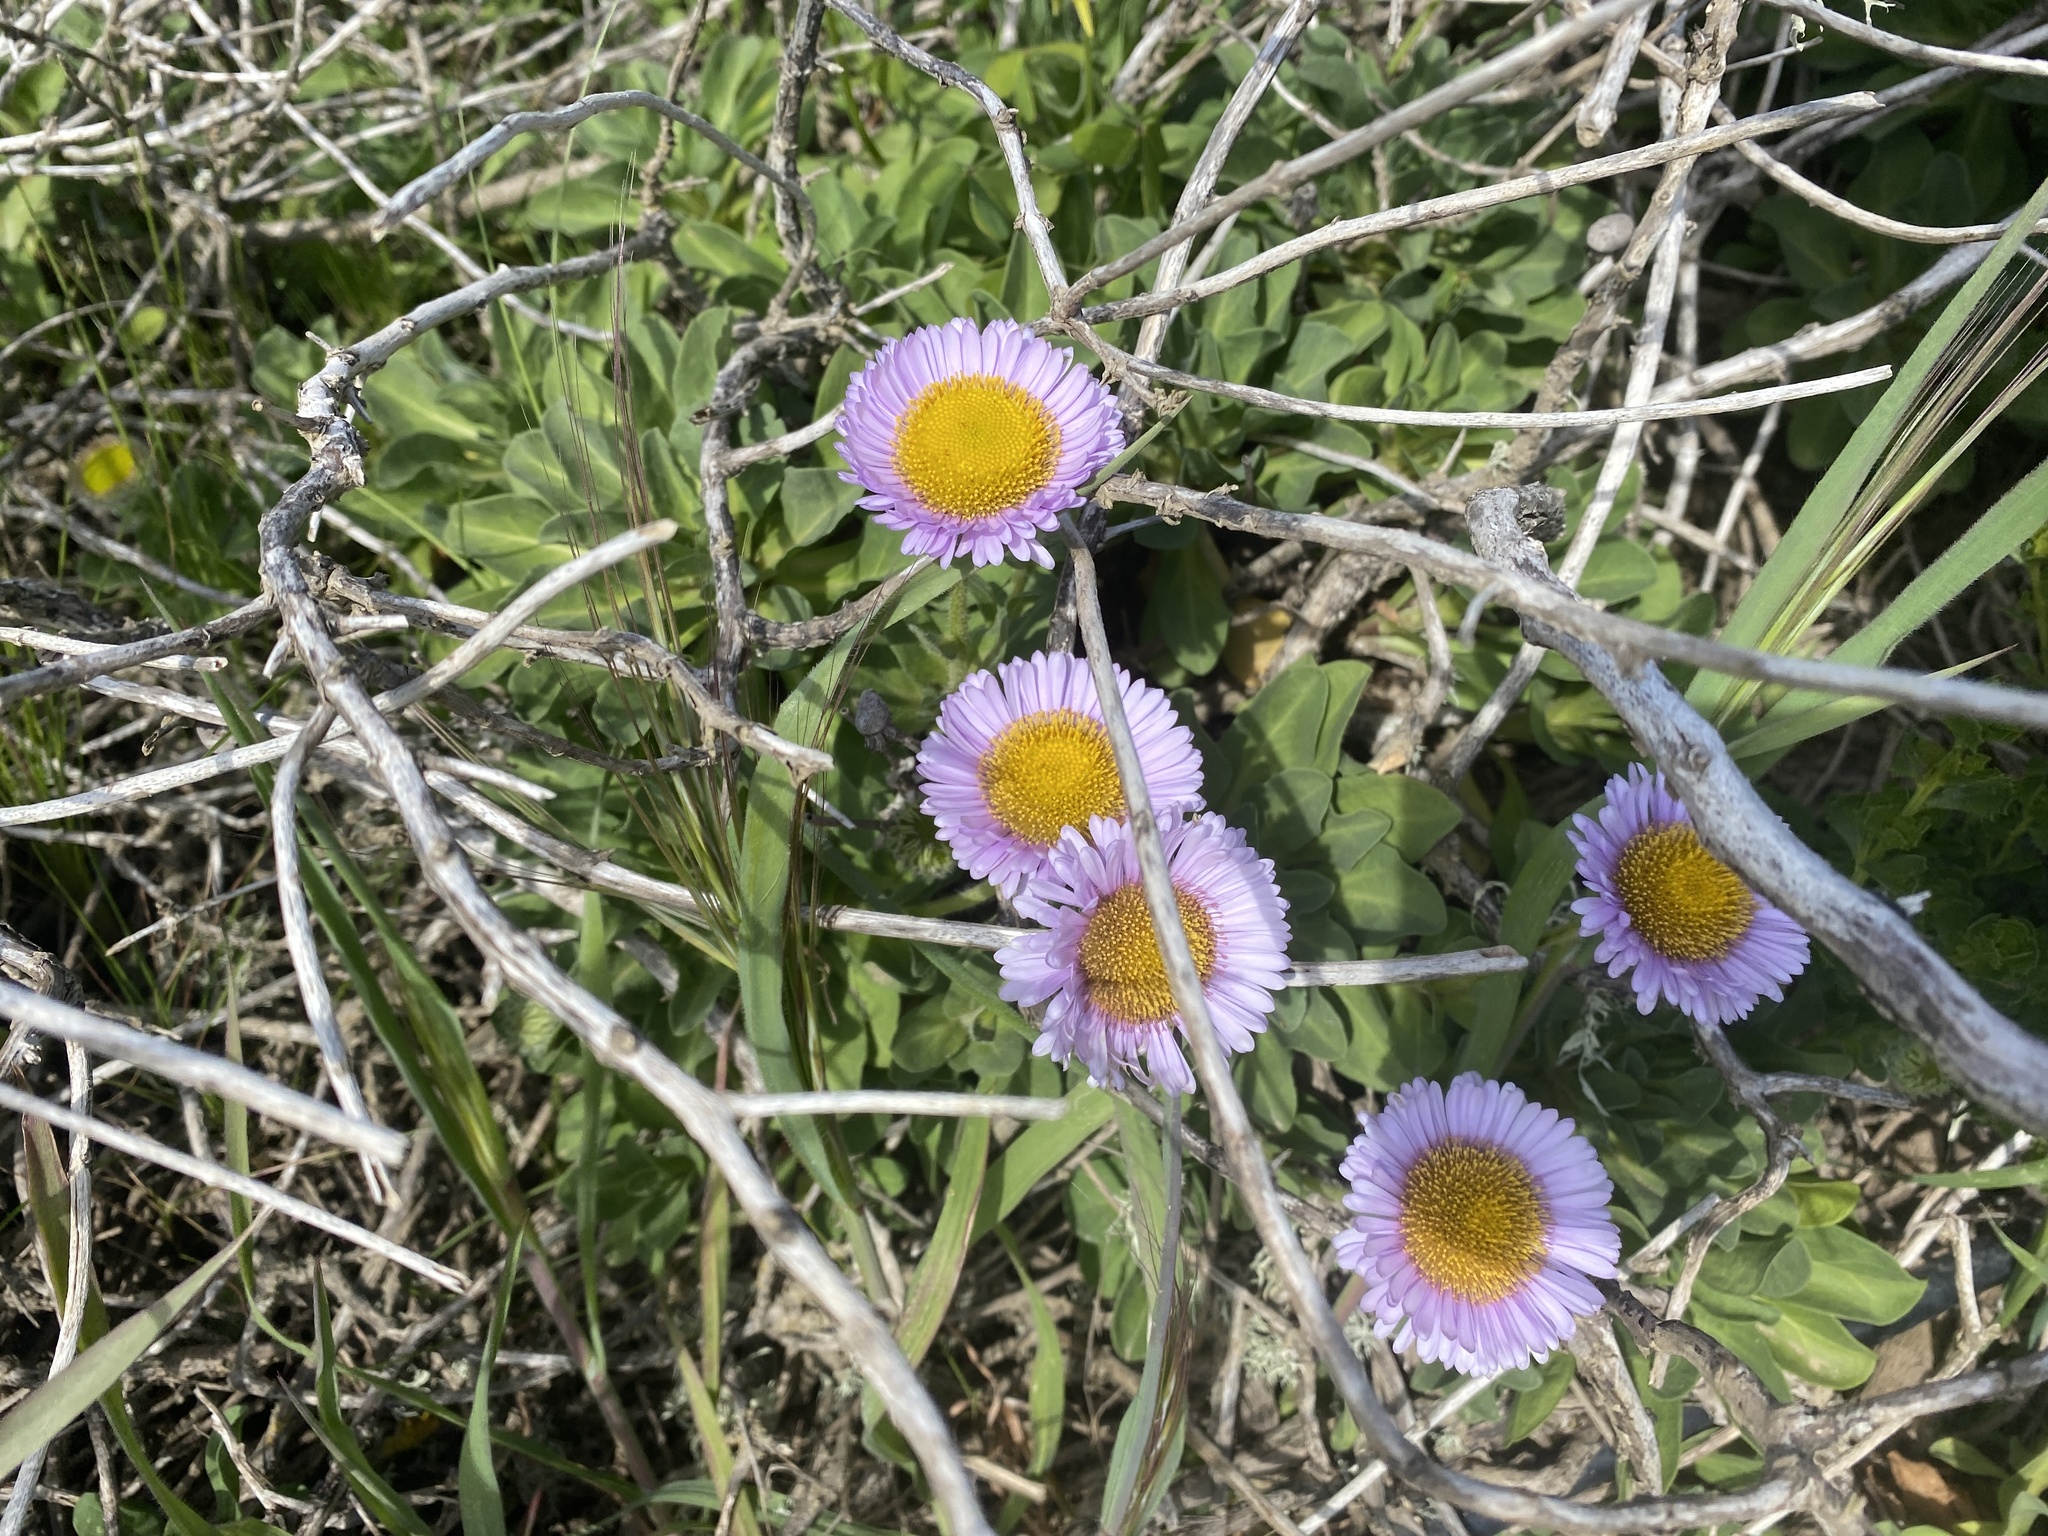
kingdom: Plantae
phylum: Tracheophyta
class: Magnoliopsida
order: Asterales
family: Asteraceae
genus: Erigeron
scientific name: Erigeron glaucus
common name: Seaside daisy
